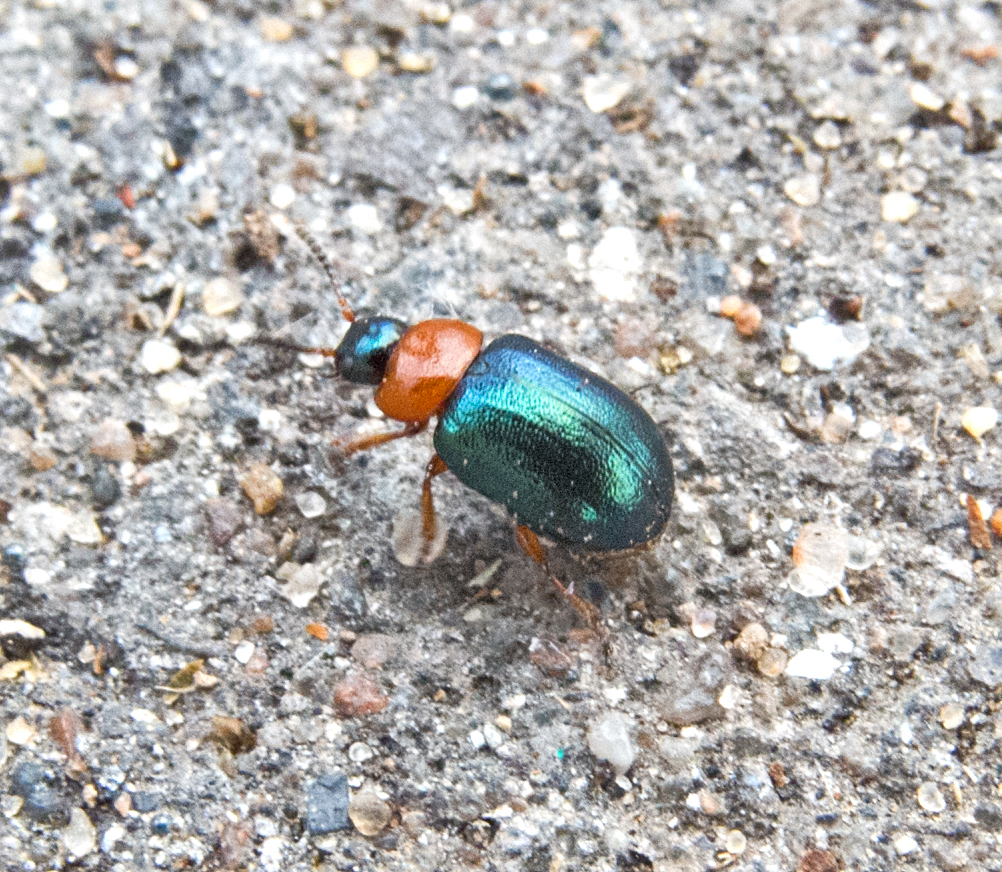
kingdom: Animalia
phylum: Arthropoda
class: Insecta
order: Coleoptera
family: Chrysomelidae
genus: Gastrophysa
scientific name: Gastrophysa polygoni
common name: Knotweed leaf beetle
